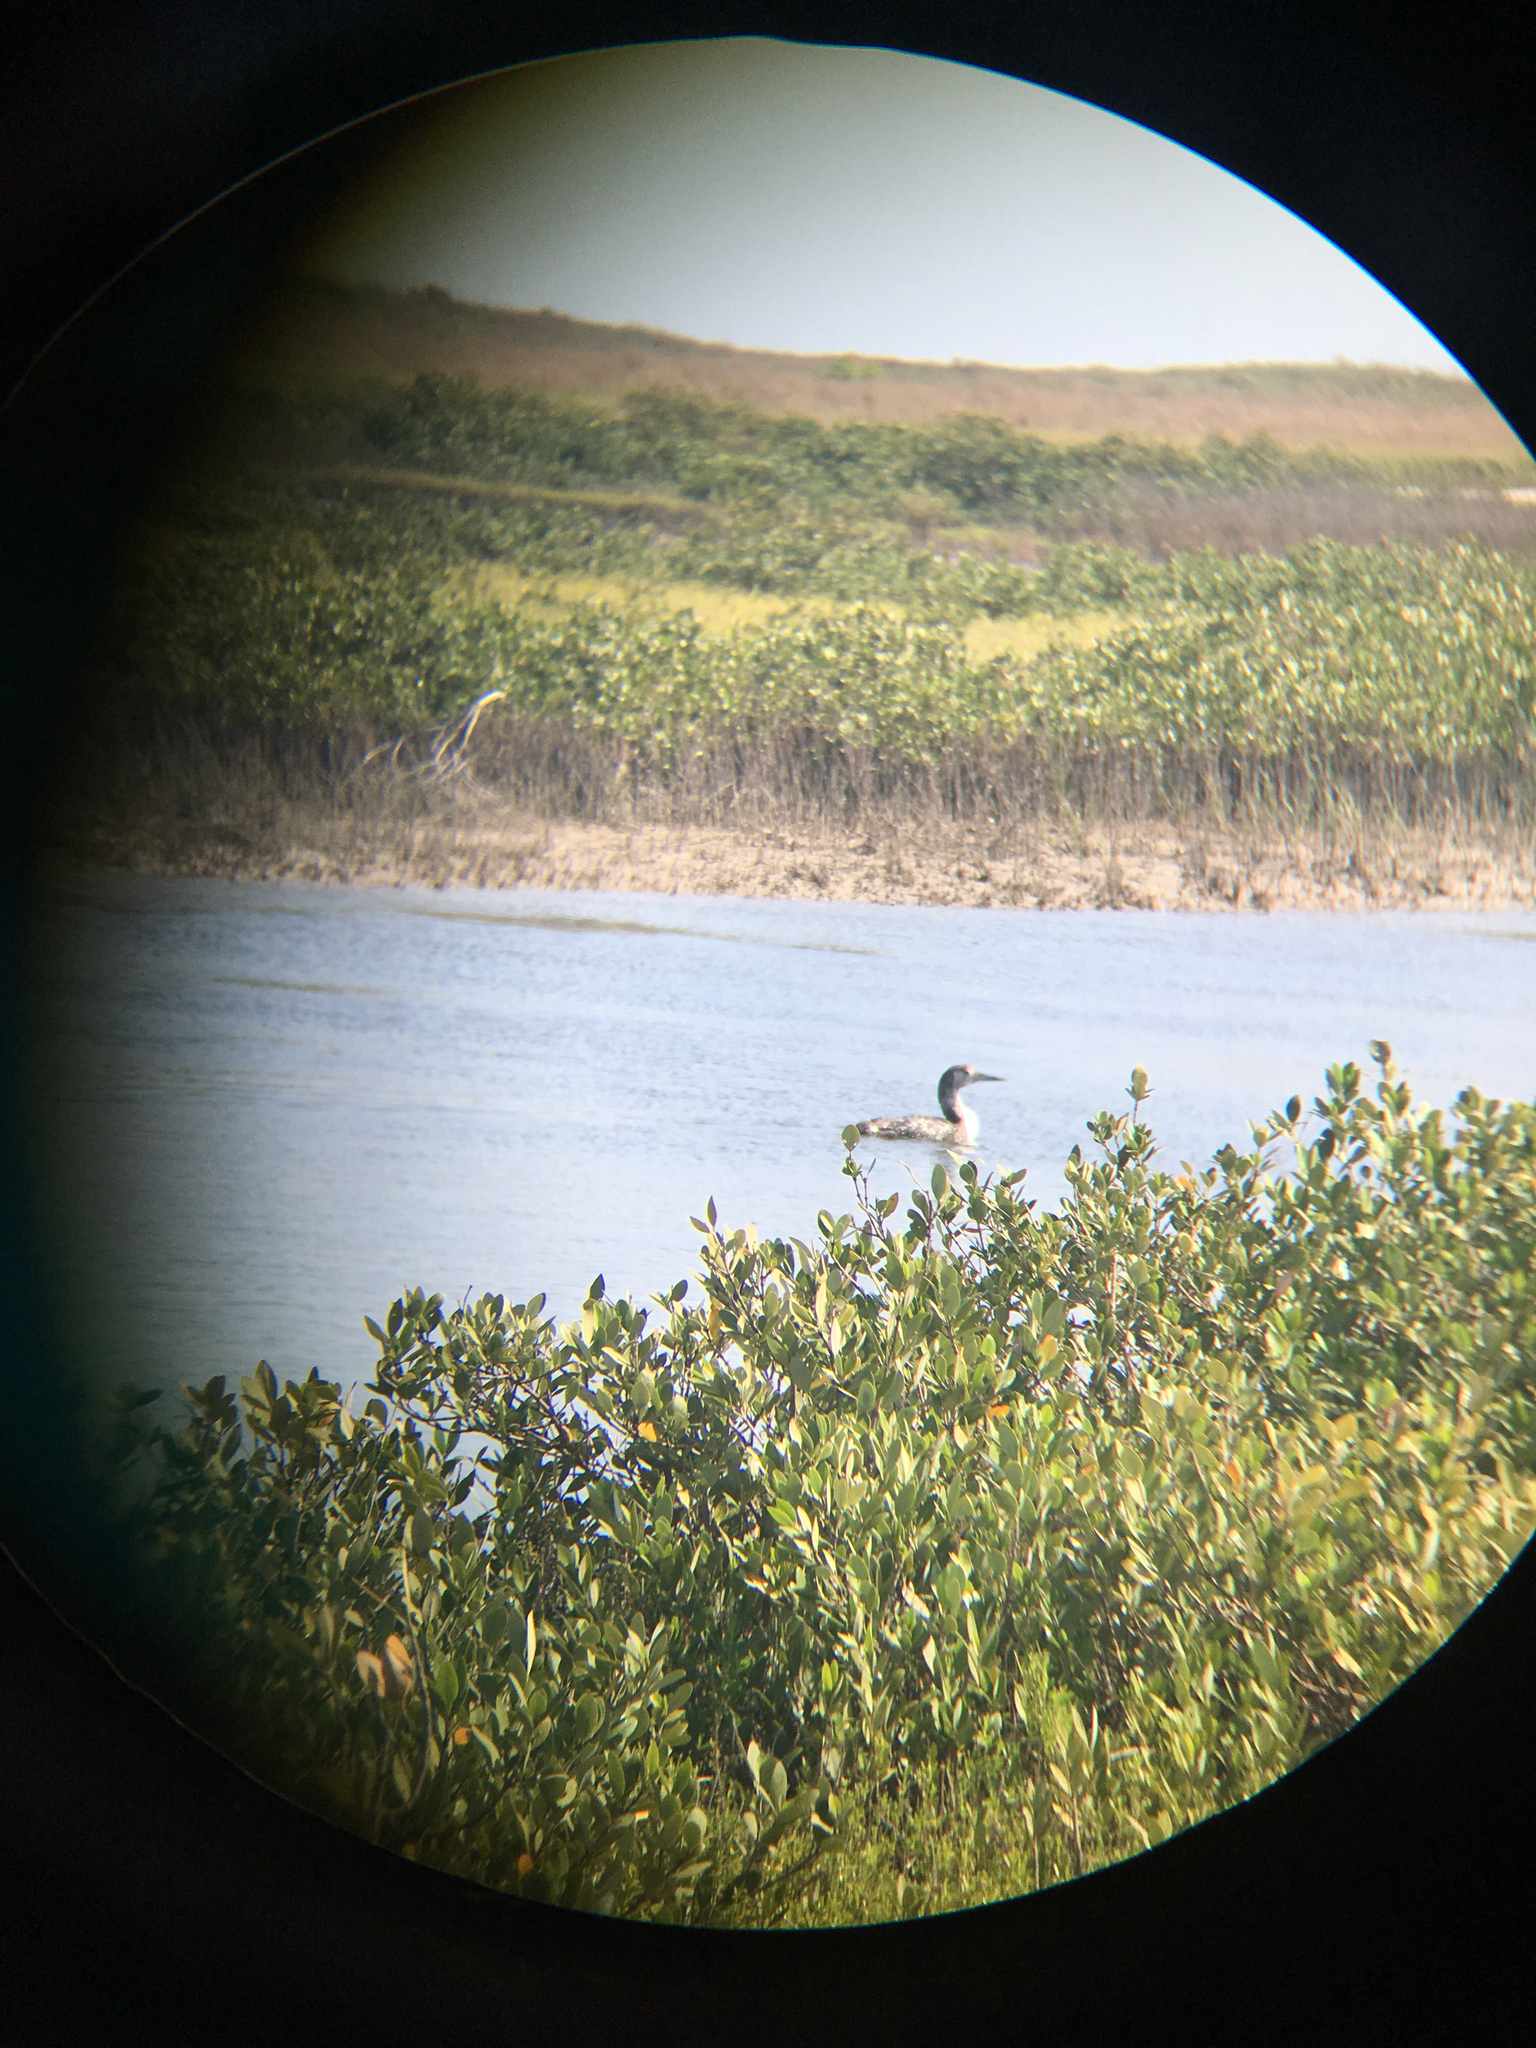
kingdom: Animalia
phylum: Chordata
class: Aves
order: Gaviiformes
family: Gaviidae
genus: Gavia
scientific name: Gavia immer
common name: Common loon
